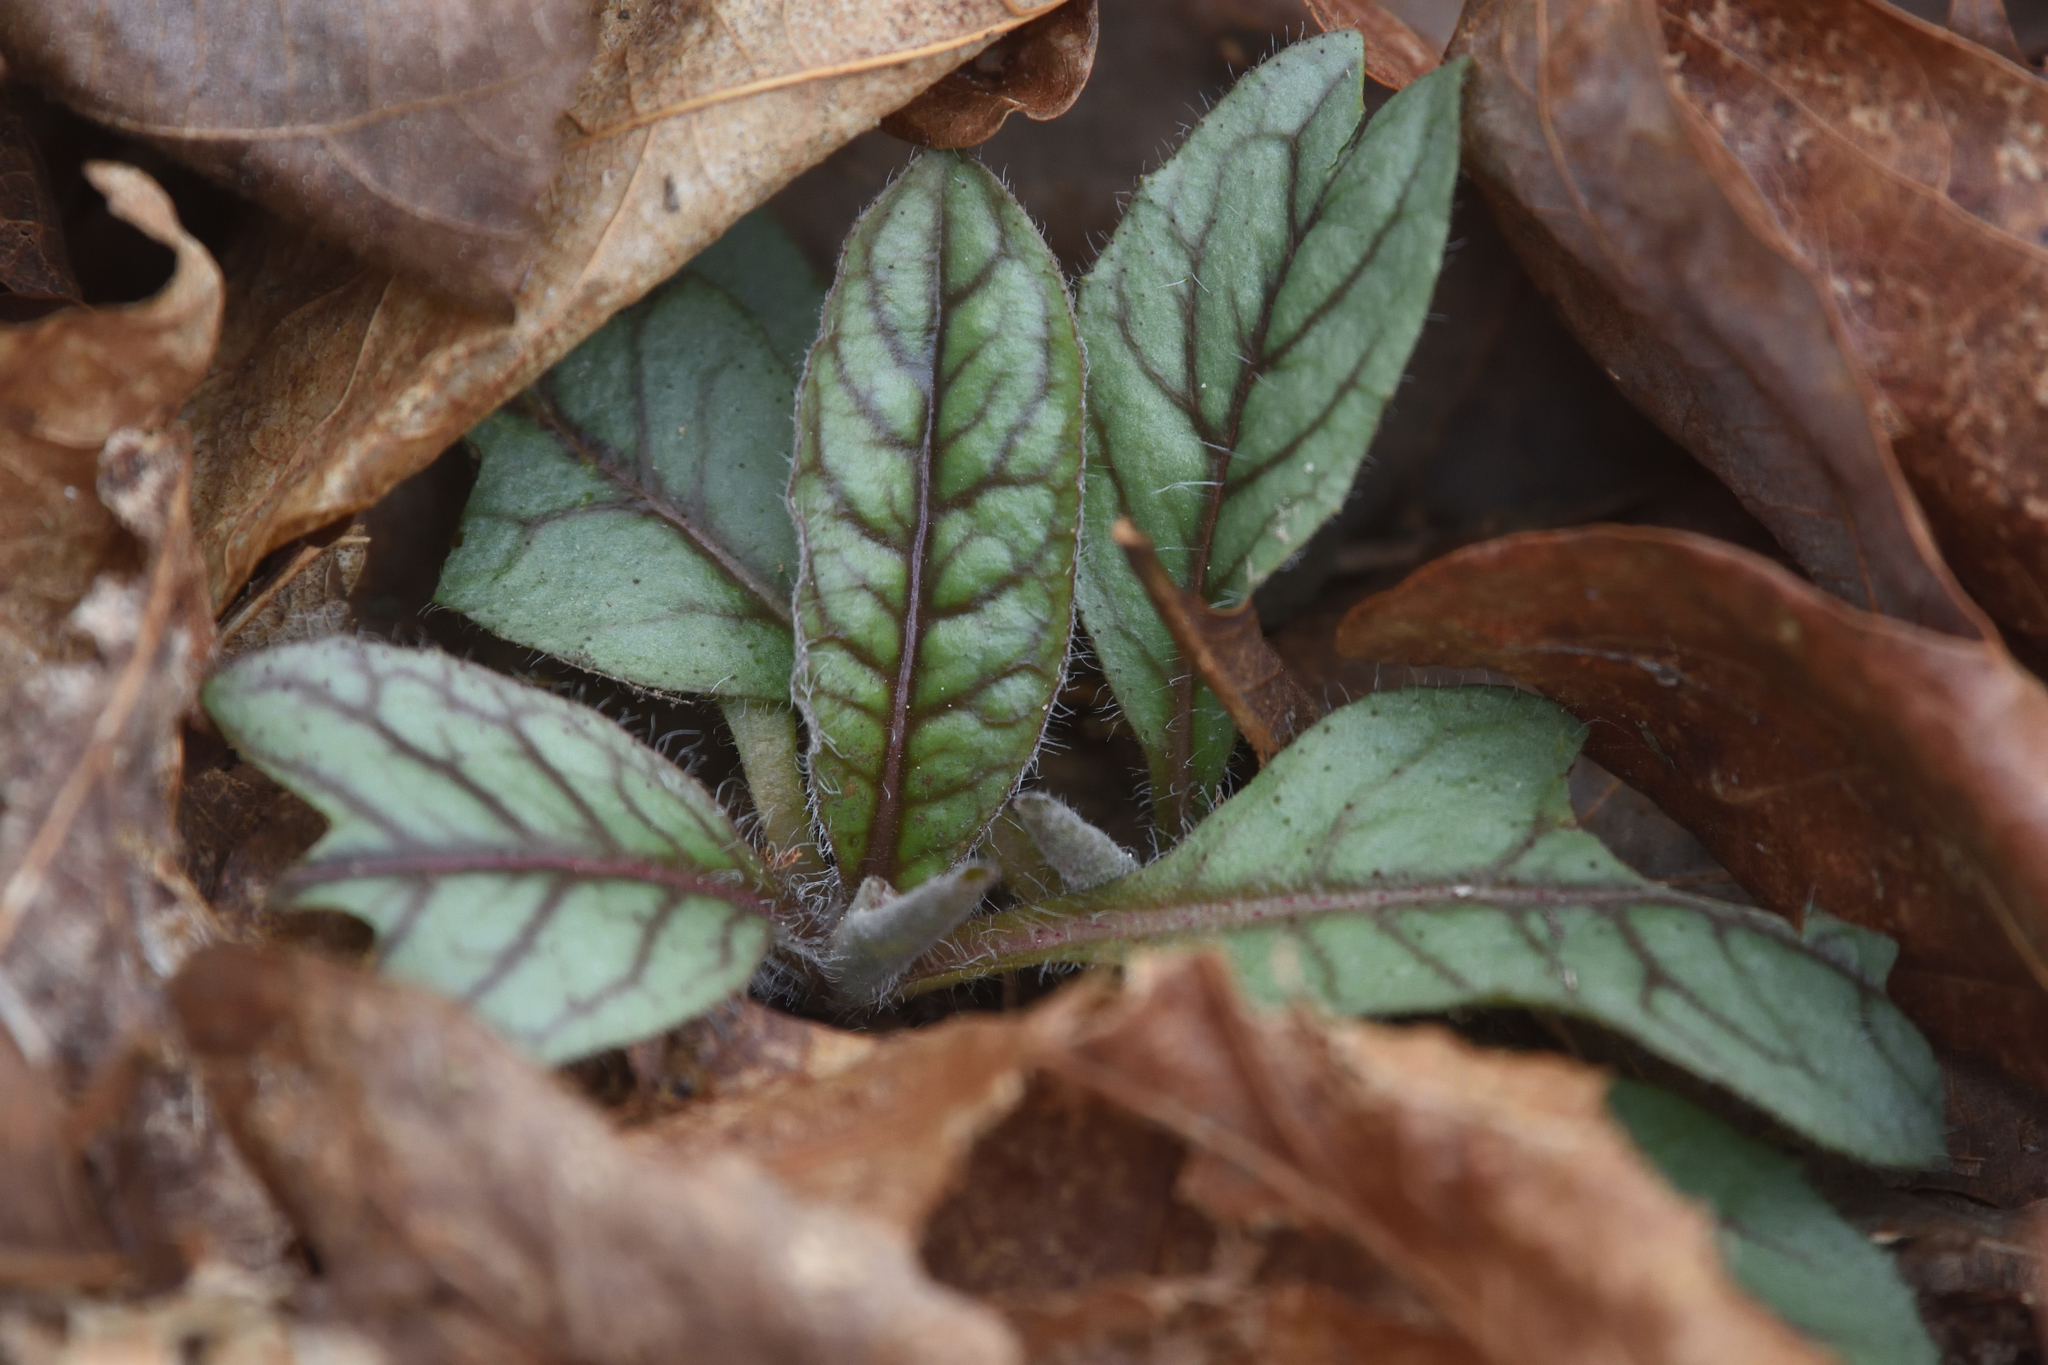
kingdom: Plantae
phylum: Tracheophyta
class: Magnoliopsida
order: Asterales
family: Asteraceae
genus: Hieracium
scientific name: Hieracium venosum
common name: Rattlesnake hawkweed
